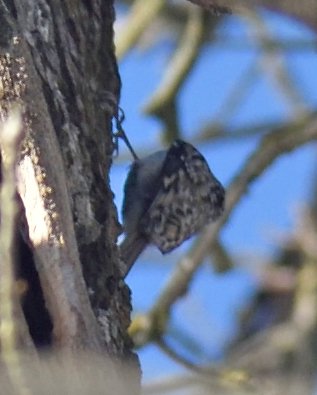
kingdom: Animalia
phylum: Chordata
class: Aves
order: Passeriformes
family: Certhiidae
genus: Certhia
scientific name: Certhia familiaris
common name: Eurasian treecreeper
